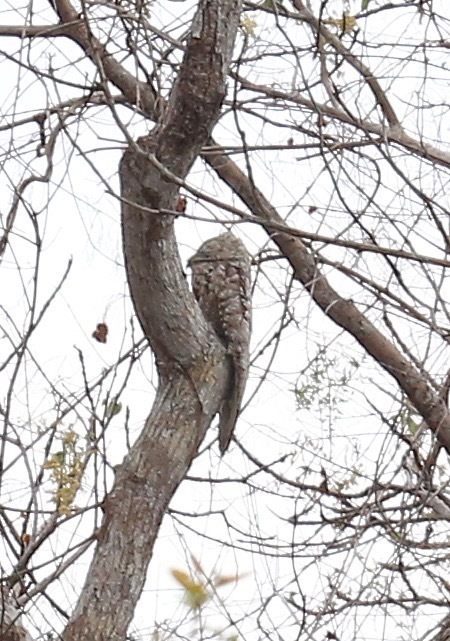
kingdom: Animalia
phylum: Chordata
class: Aves
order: Nyctibiiformes
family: Nyctibiidae
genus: Nyctibius
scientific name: Nyctibius grandis
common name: Great potoo
